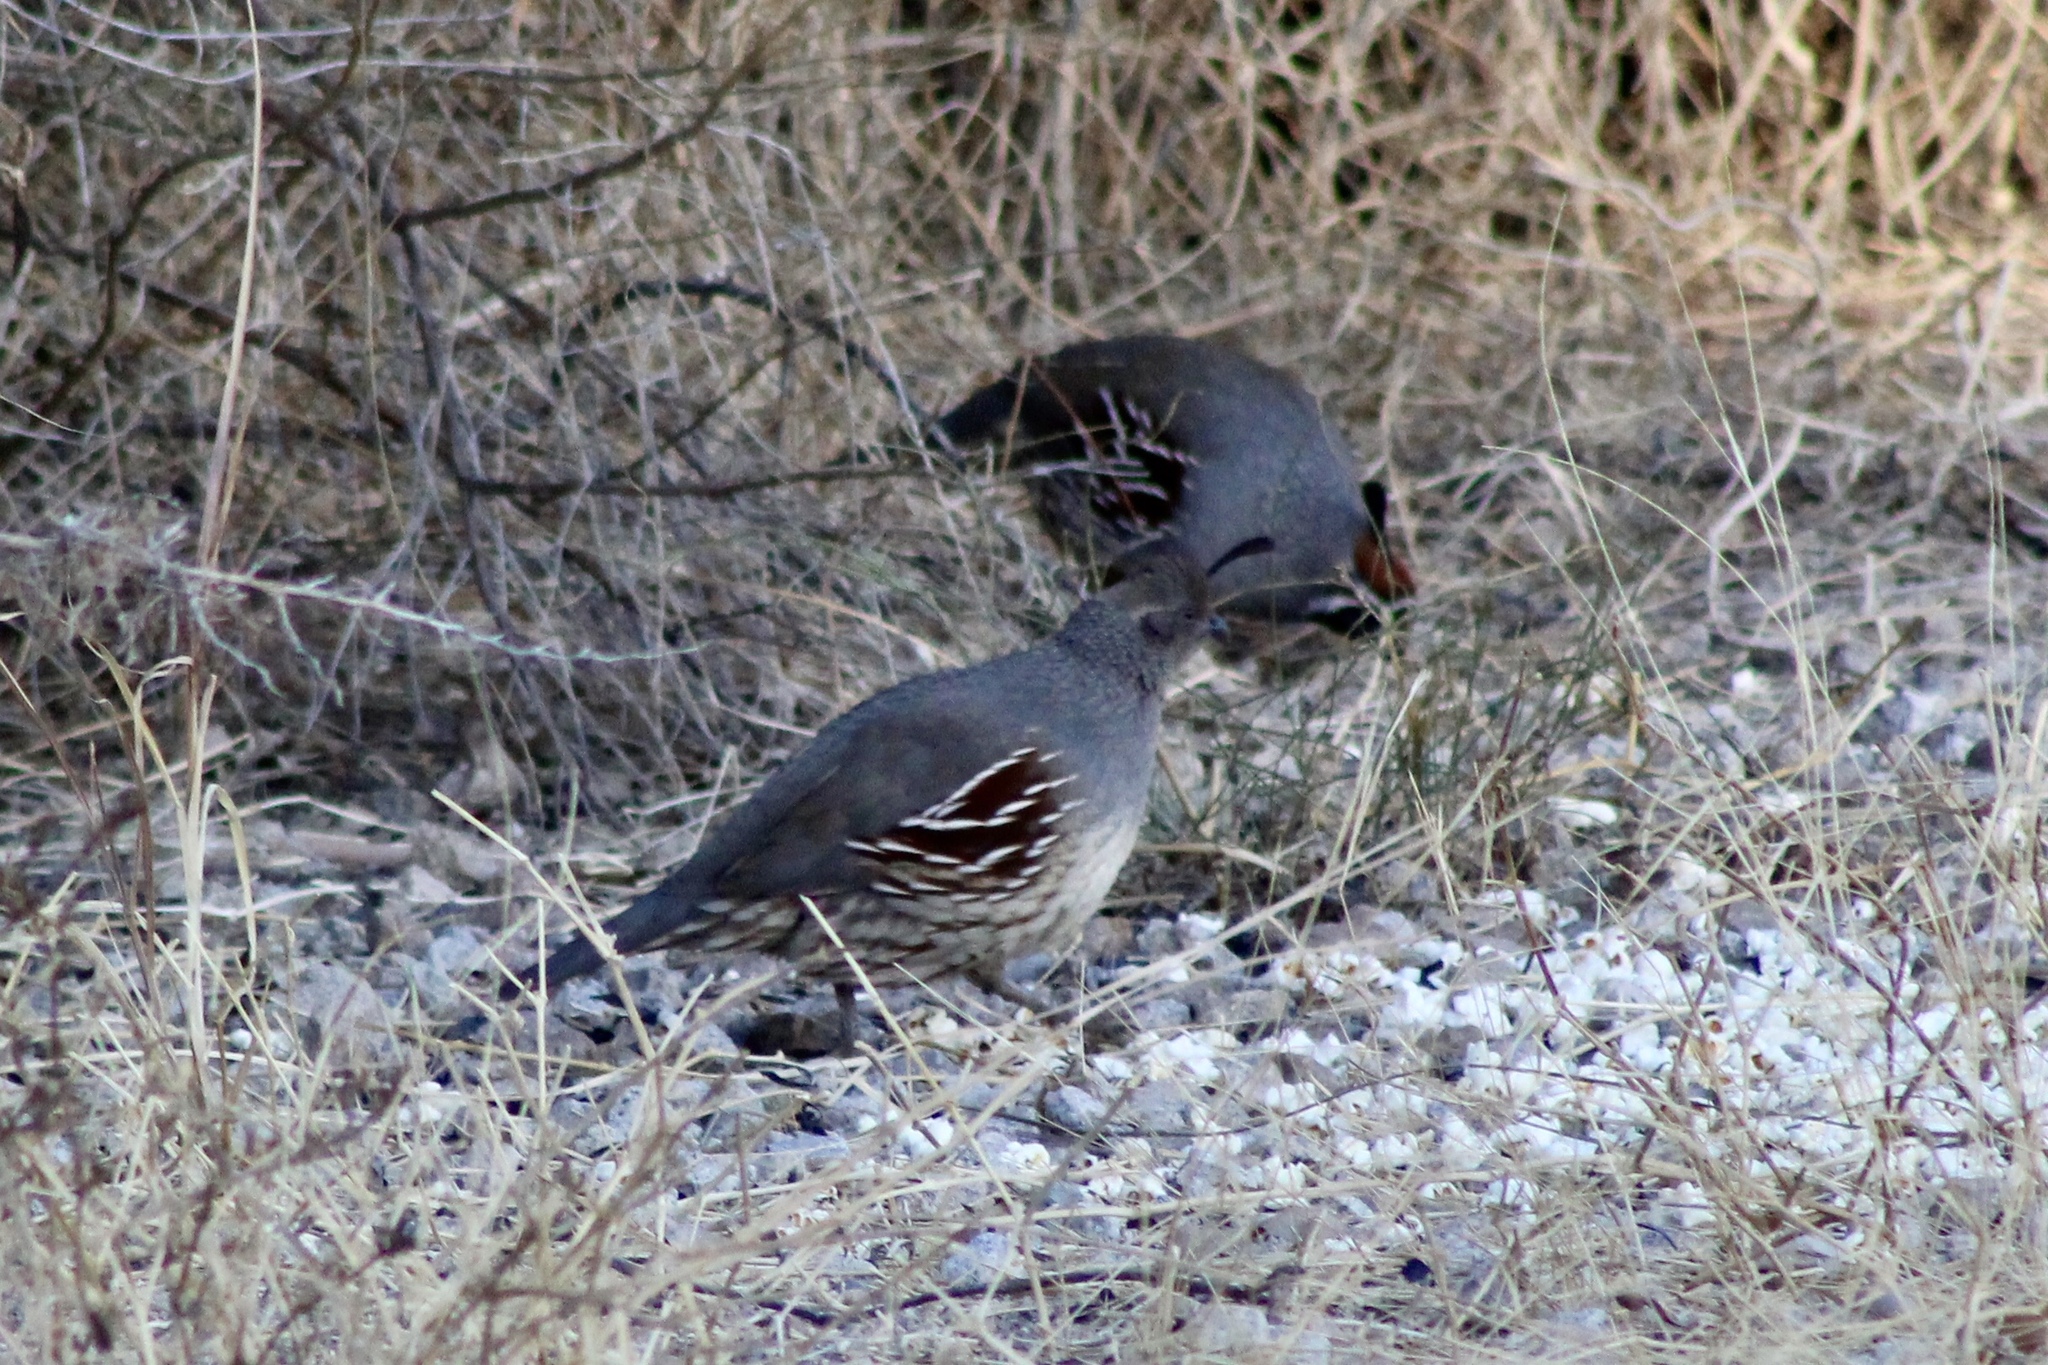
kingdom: Animalia
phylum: Chordata
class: Aves
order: Galliformes
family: Odontophoridae
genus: Callipepla
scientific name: Callipepla gambelii
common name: Gambel's quail
